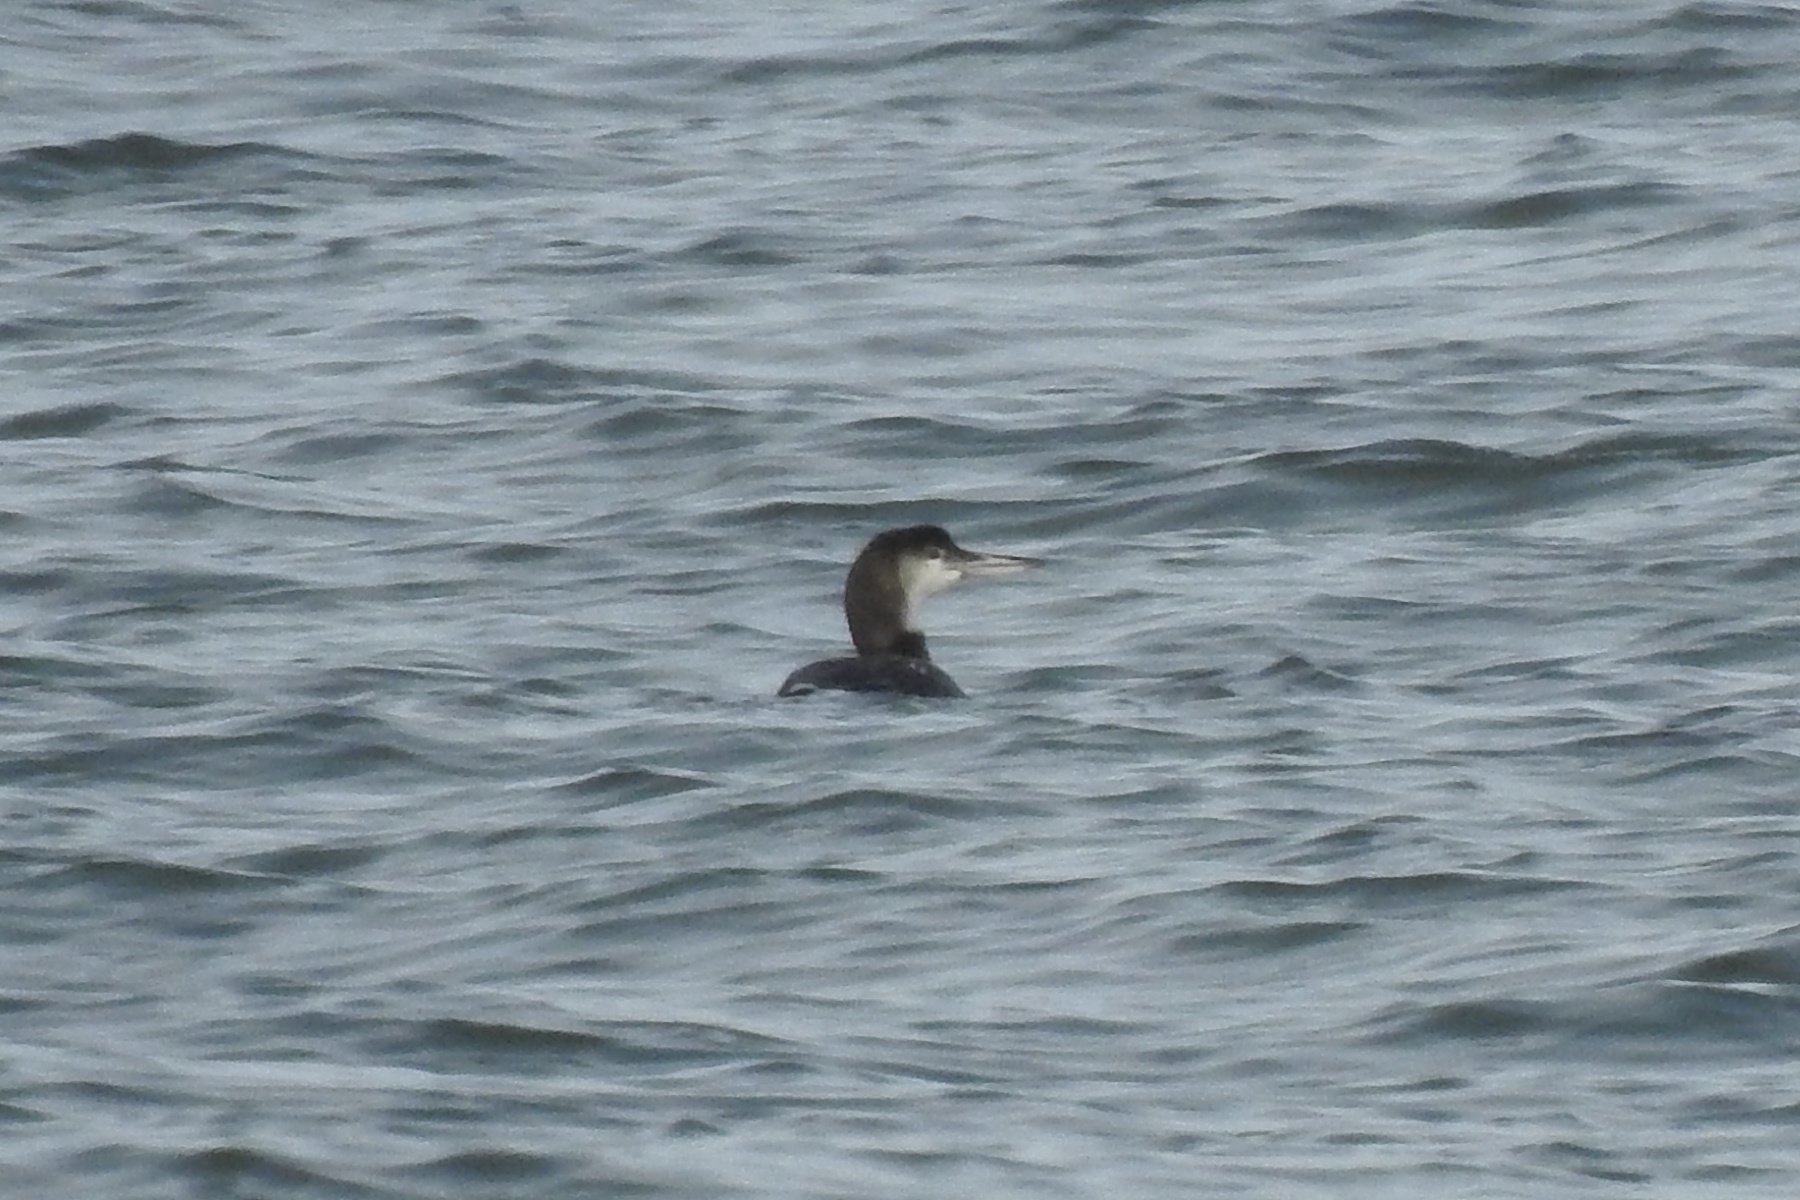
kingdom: Animalia
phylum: Chordata
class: Aves
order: Gaviiformes
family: Gaviidae
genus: Gavia
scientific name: Gavia immer
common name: Common loon
